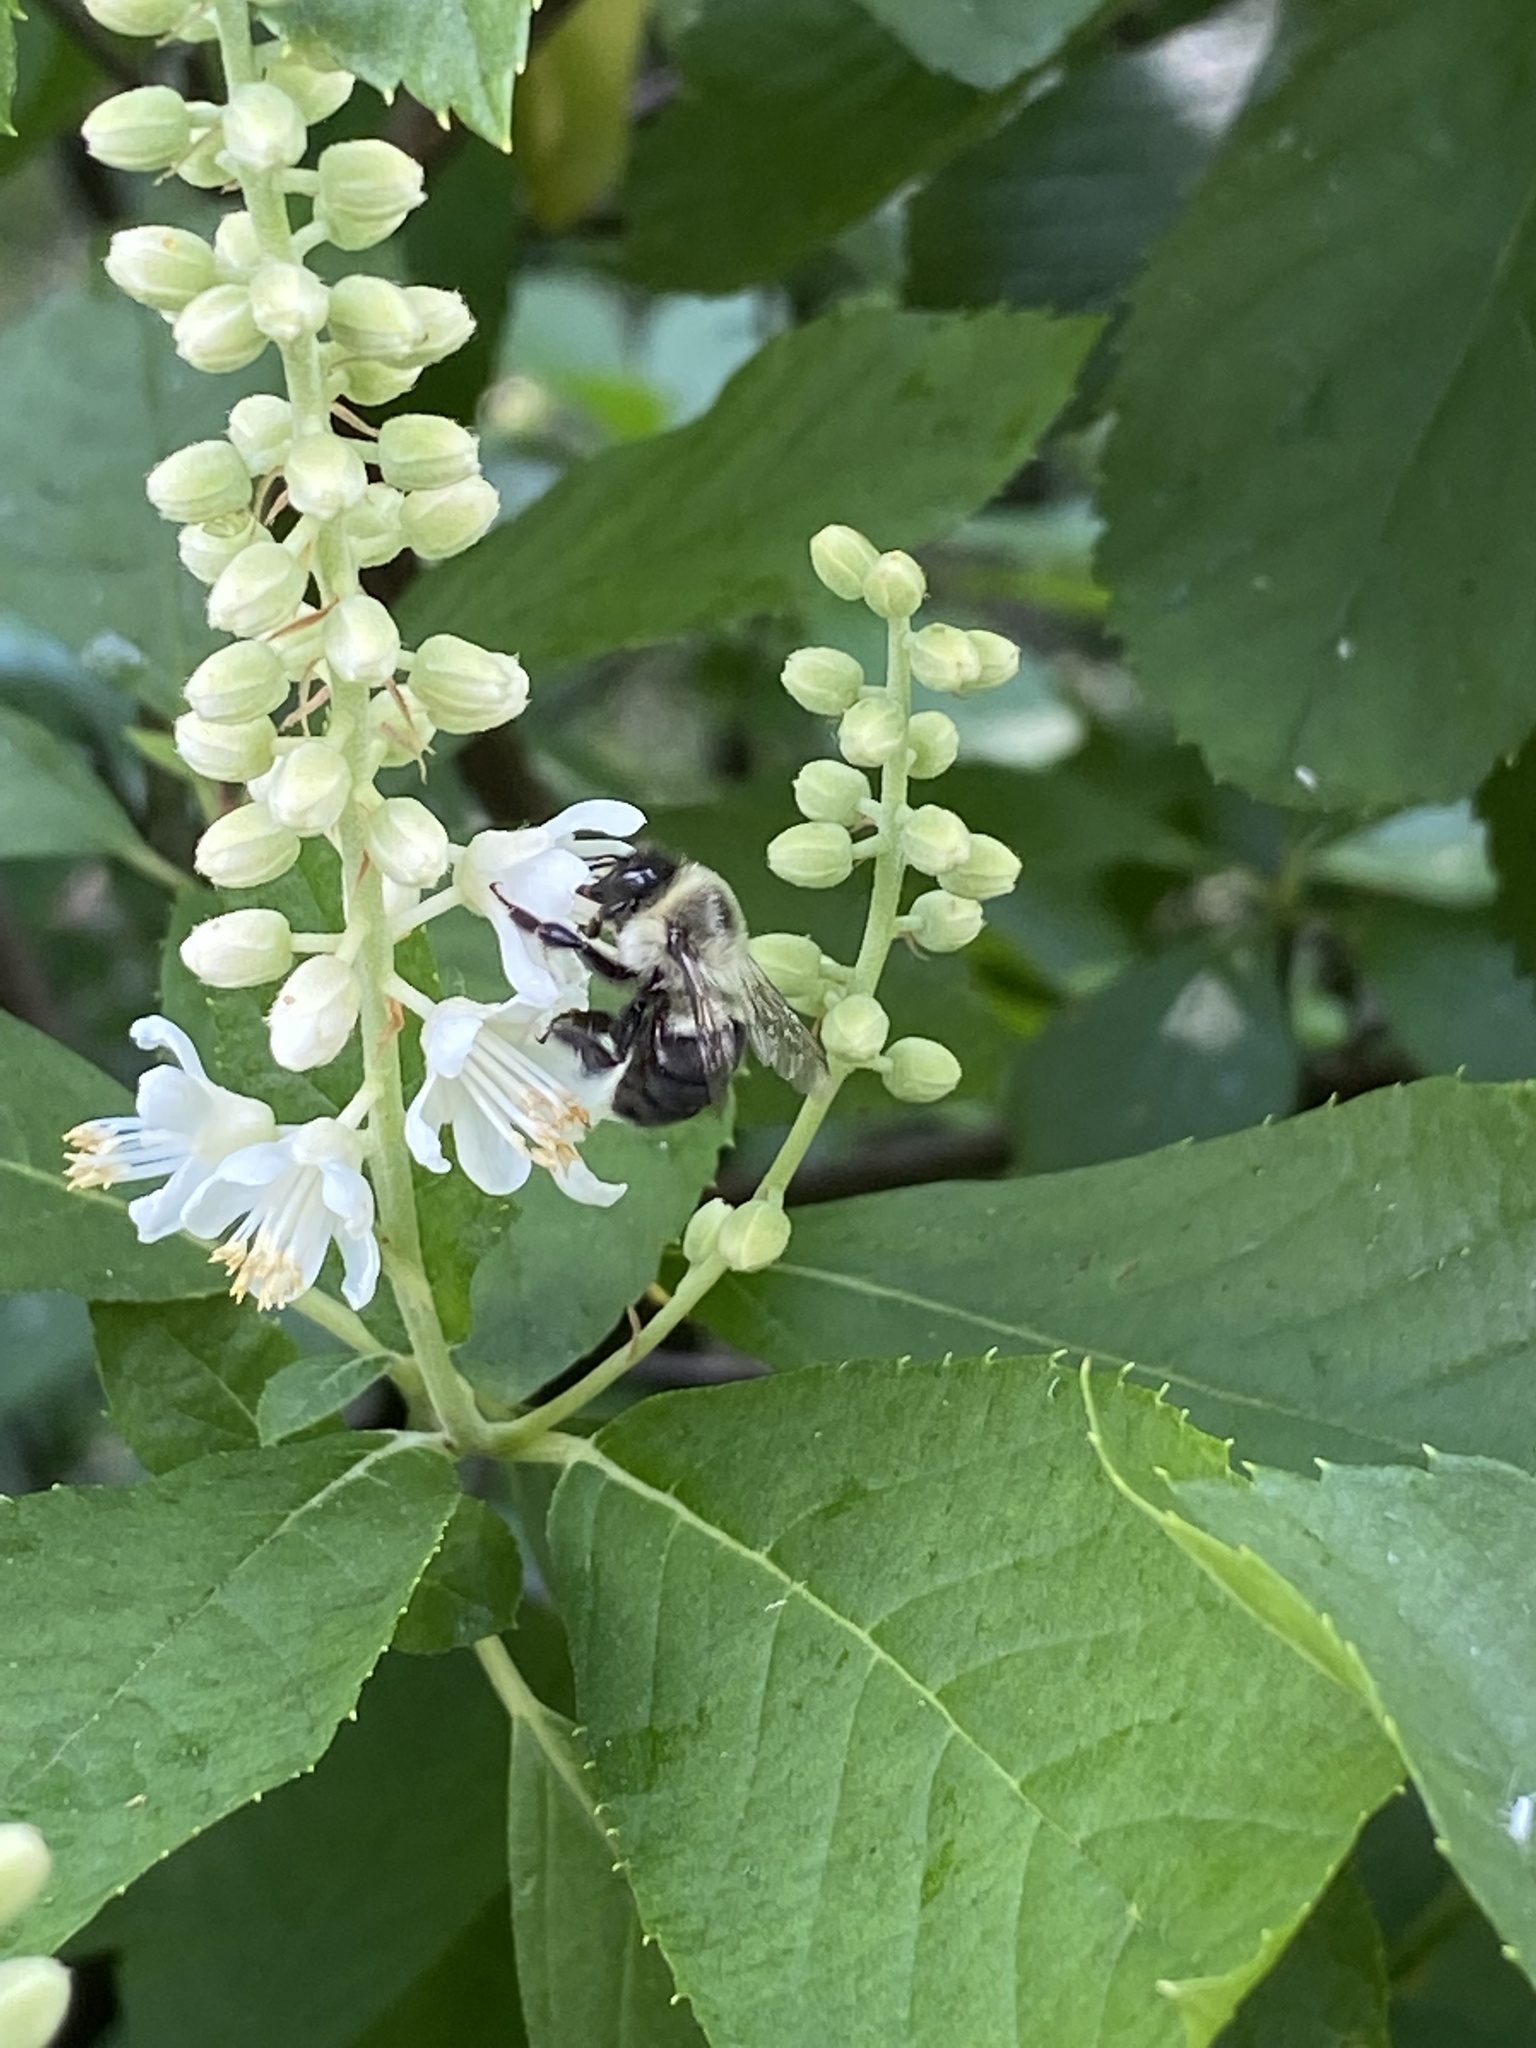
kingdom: Animalia
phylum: Arthropoda
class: Insecta
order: Hymenoptera
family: Apidae
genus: Bombus
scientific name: Bombus impatiens
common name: Common eastern bumble bee
